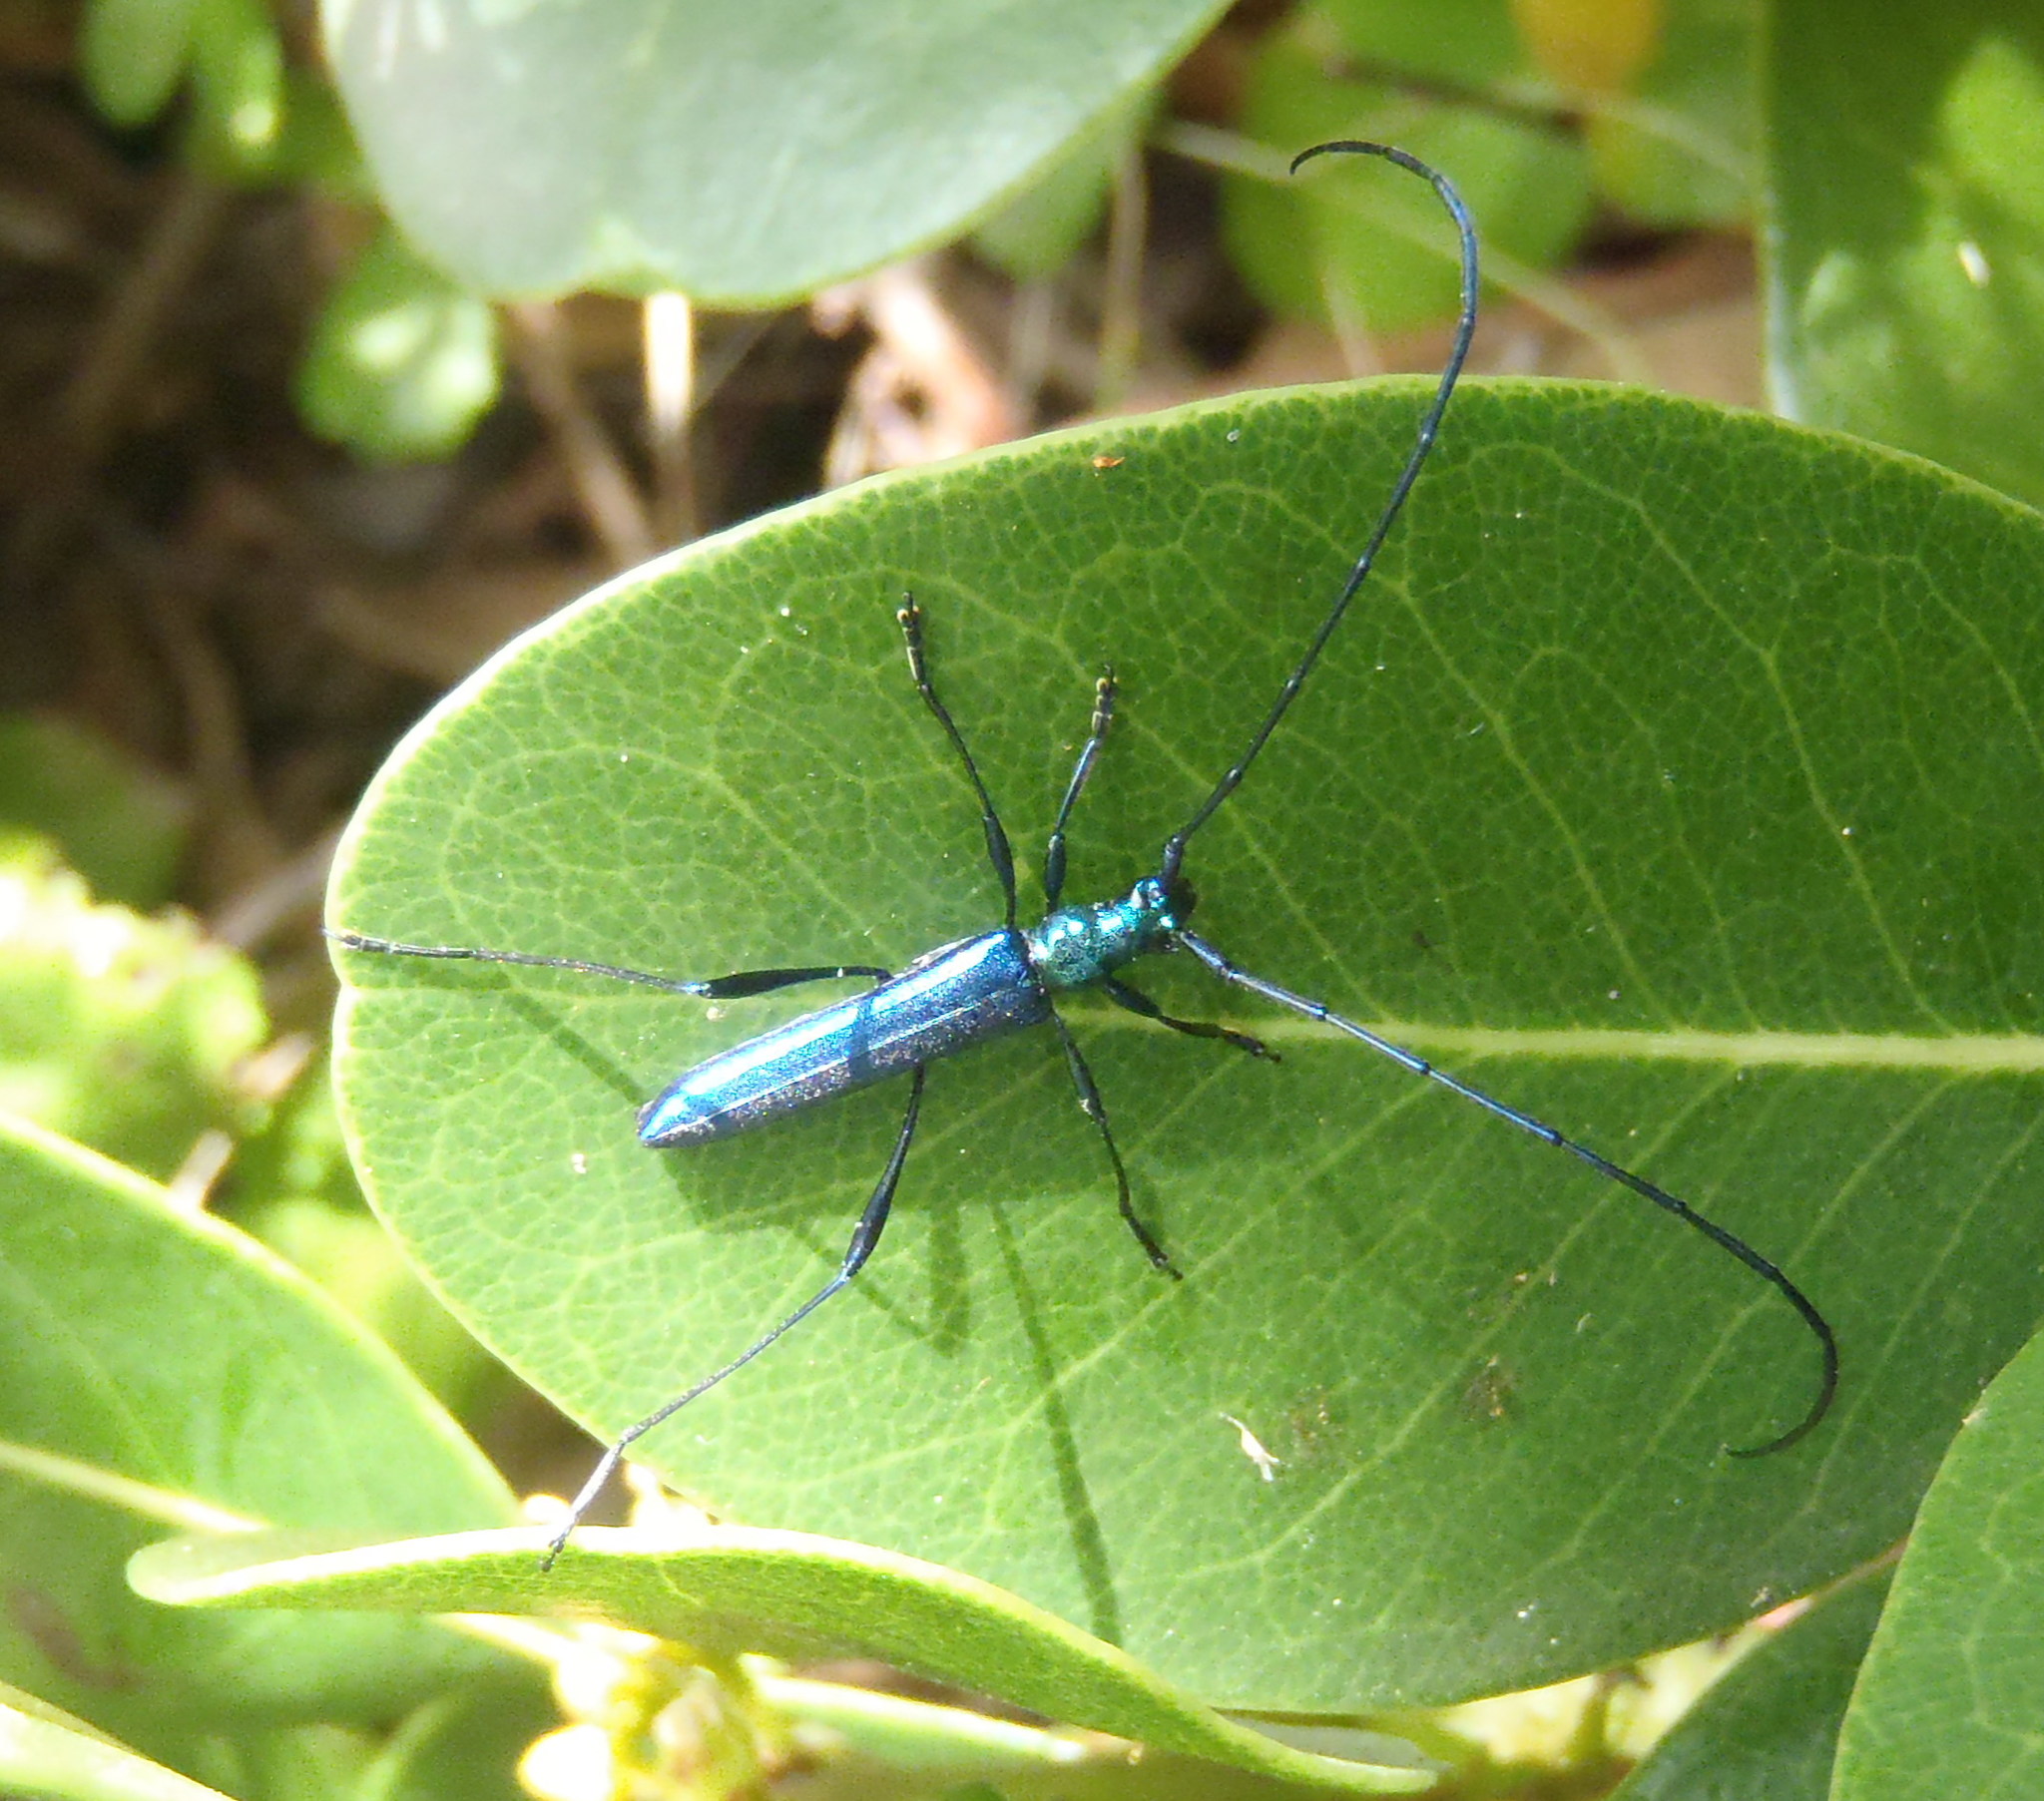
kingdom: Animalia
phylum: Arthropoda
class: Insecta
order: Coleoptera
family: Cerambycidae
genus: Promeces
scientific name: Promeces longipes
